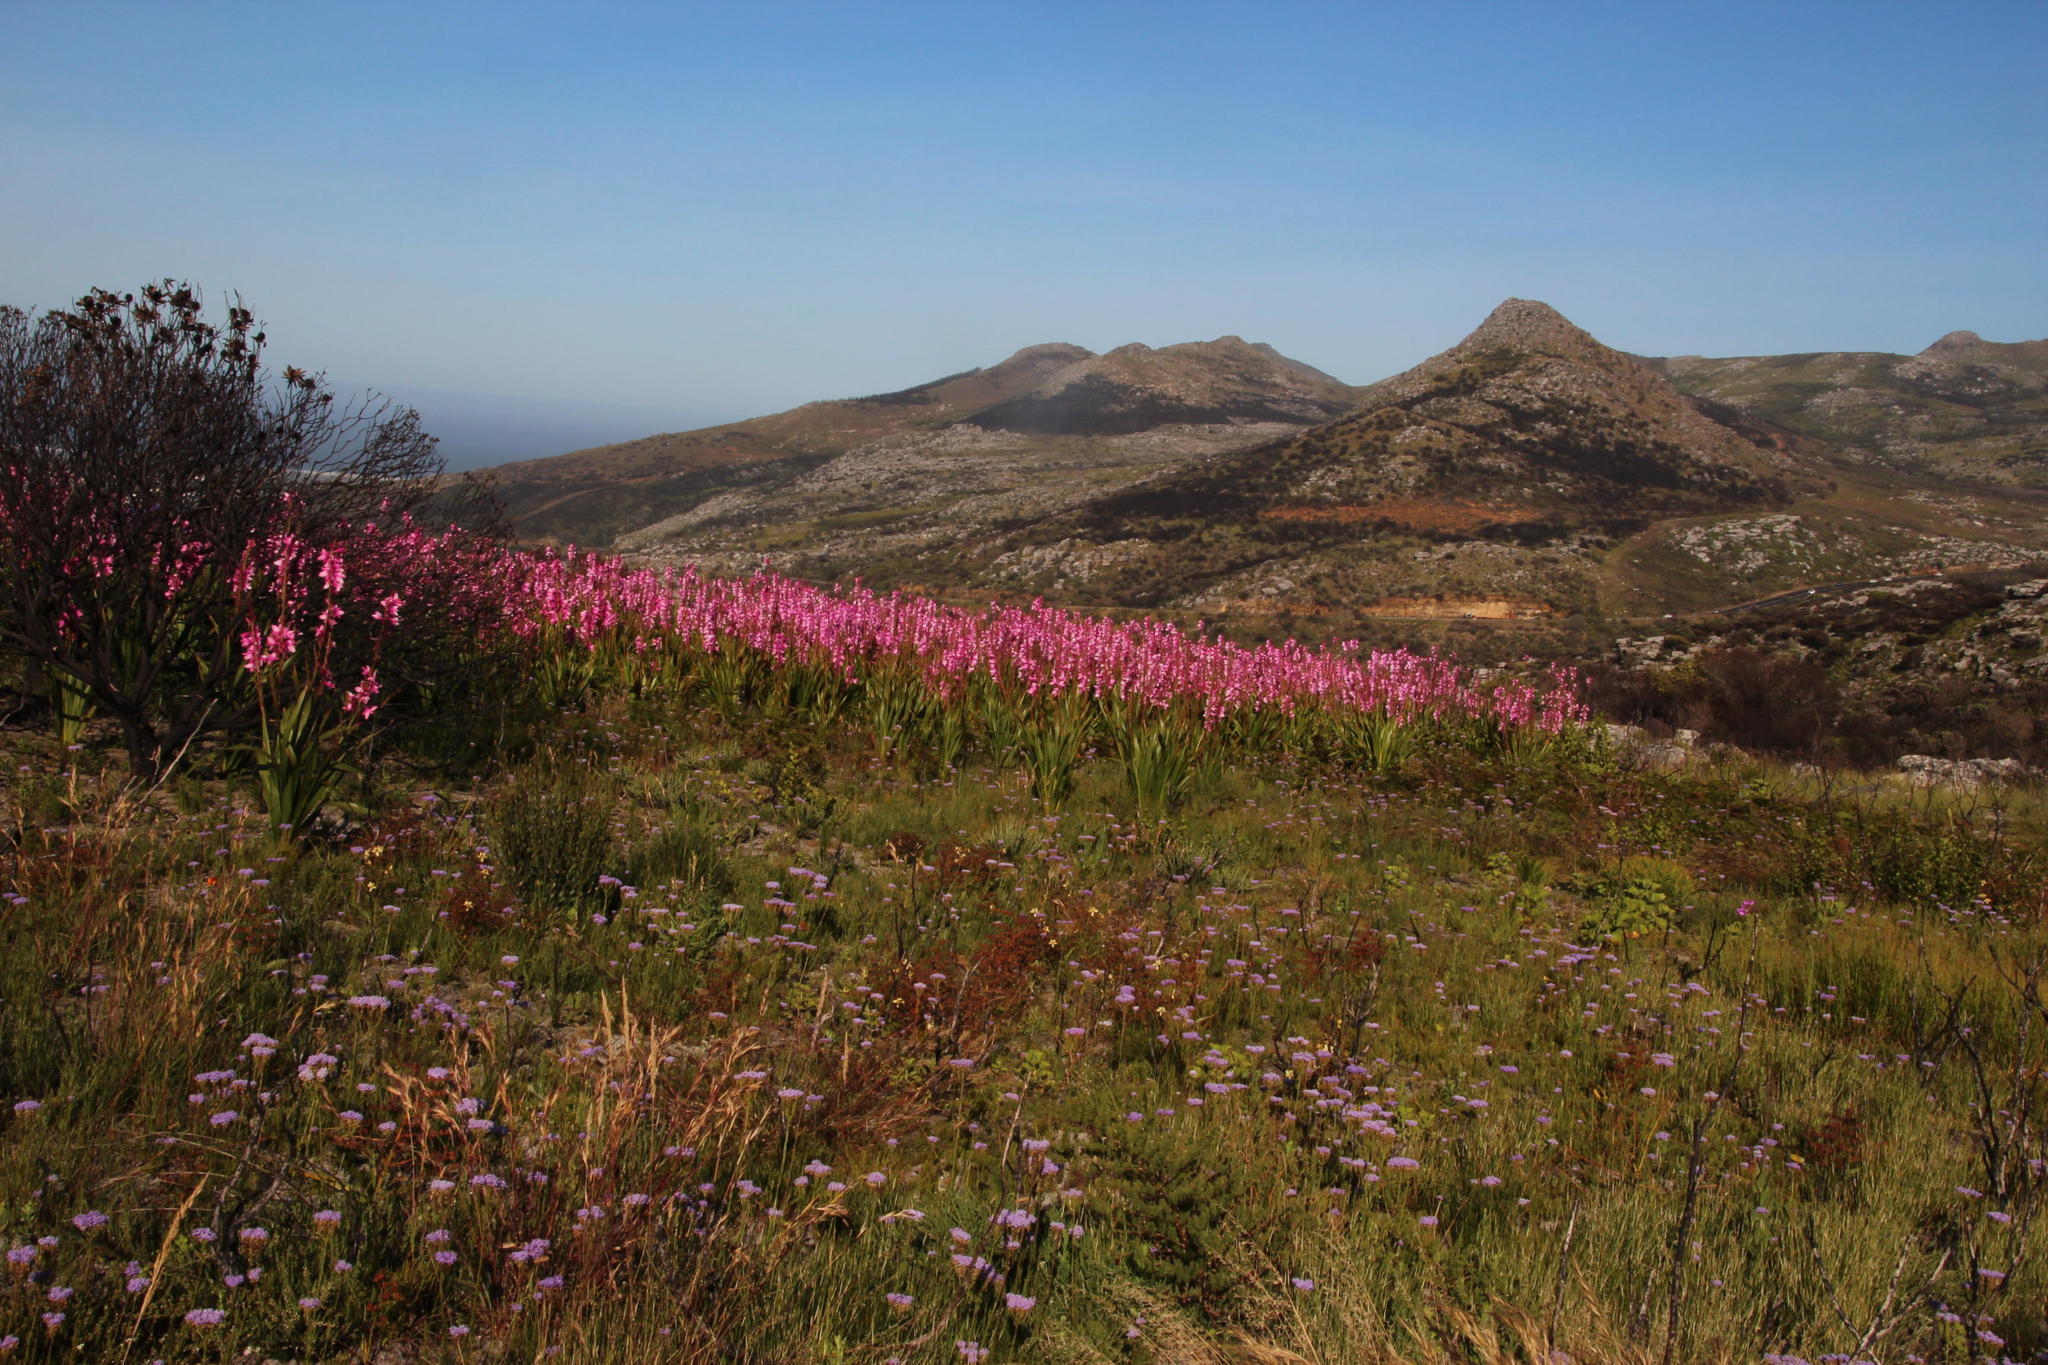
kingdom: Plantae
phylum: Tracheophyta
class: Liliopsida
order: Asparagales
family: Iridaceae
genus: Watsonia
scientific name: Watsonia borbonica
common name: Bugle-lily
